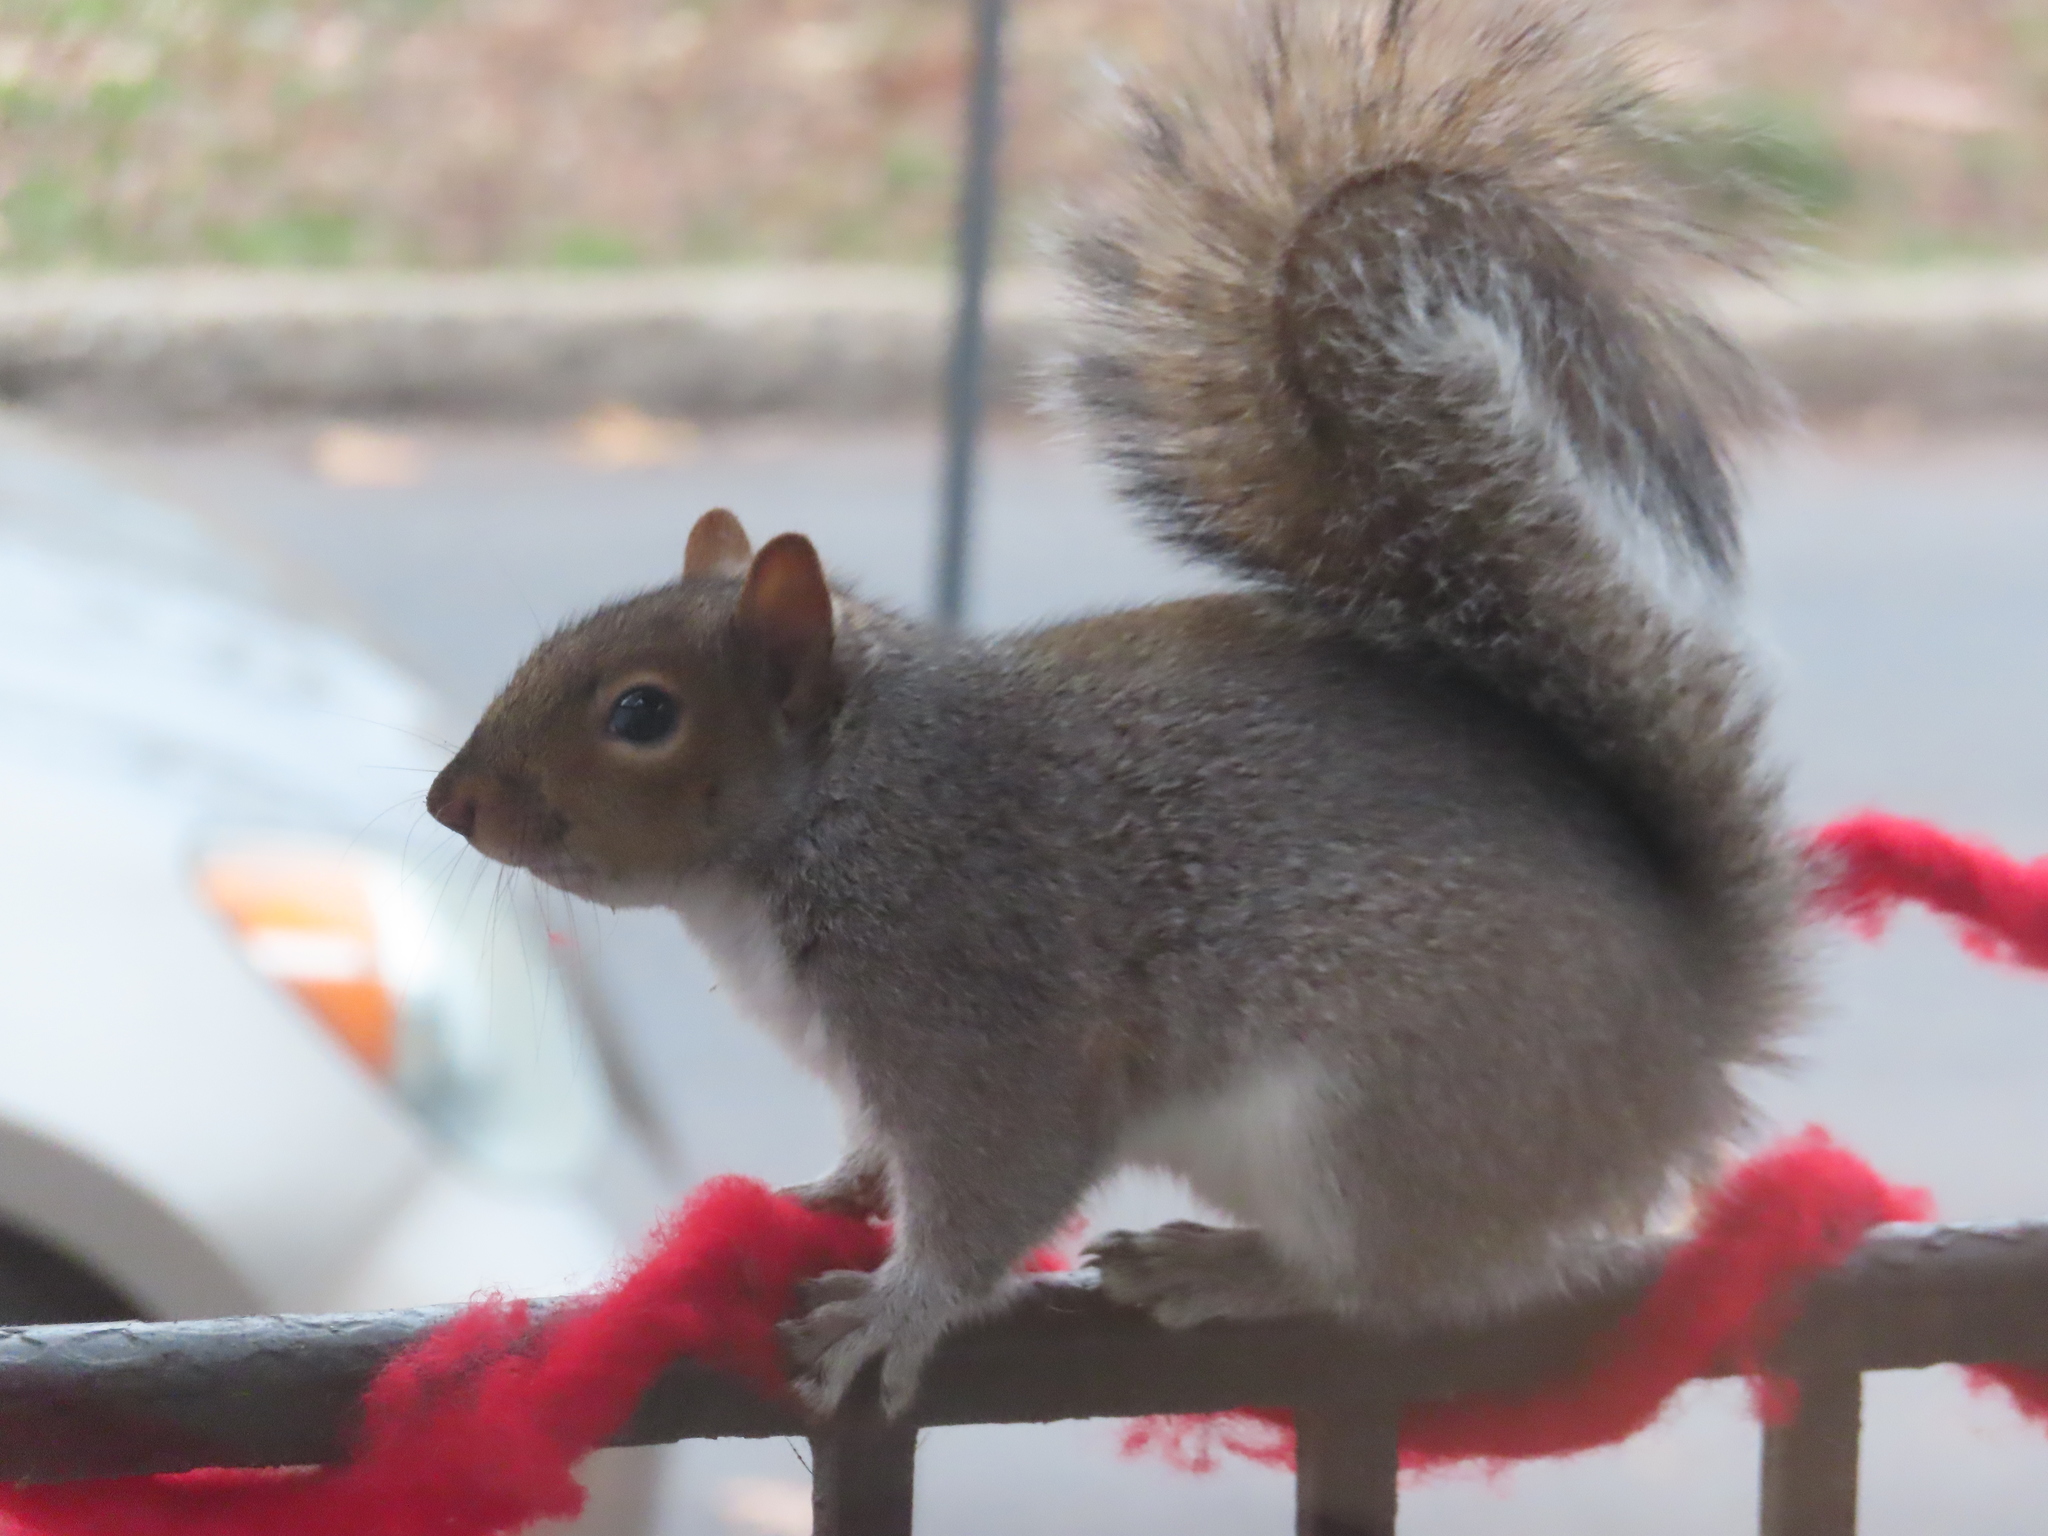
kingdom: Animalia
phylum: Chordata
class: Mammalia
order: Rodentia
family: Sciuridae
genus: Sciurus
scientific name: Sciurus carolinensis
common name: Eastern gray squirrel
